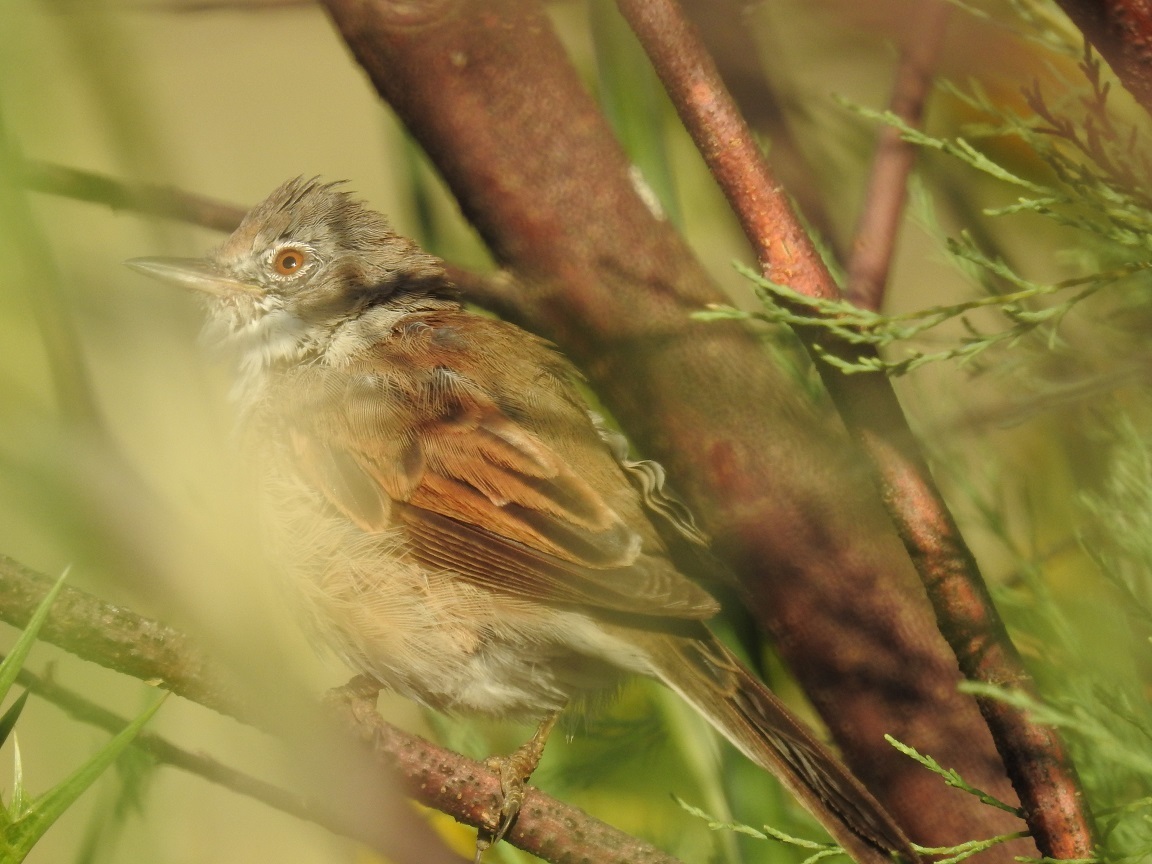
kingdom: Animalia
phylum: Chordata
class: Aves
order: Passeriformes
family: Sylviidae
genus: Sylvia
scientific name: Sylvia communis
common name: Common whitethroat
